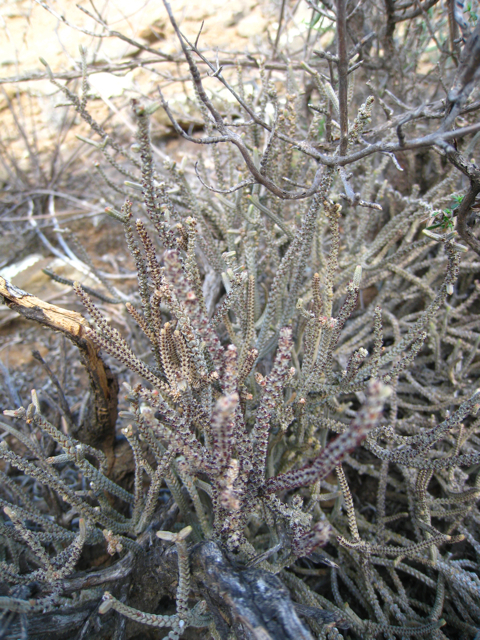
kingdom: Plantae
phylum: Tracheophyta
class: Magnoliopsida
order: Saxifragales
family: Crassulaceae
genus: Crassula
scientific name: Crassula muscosa
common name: Toy-cypress
